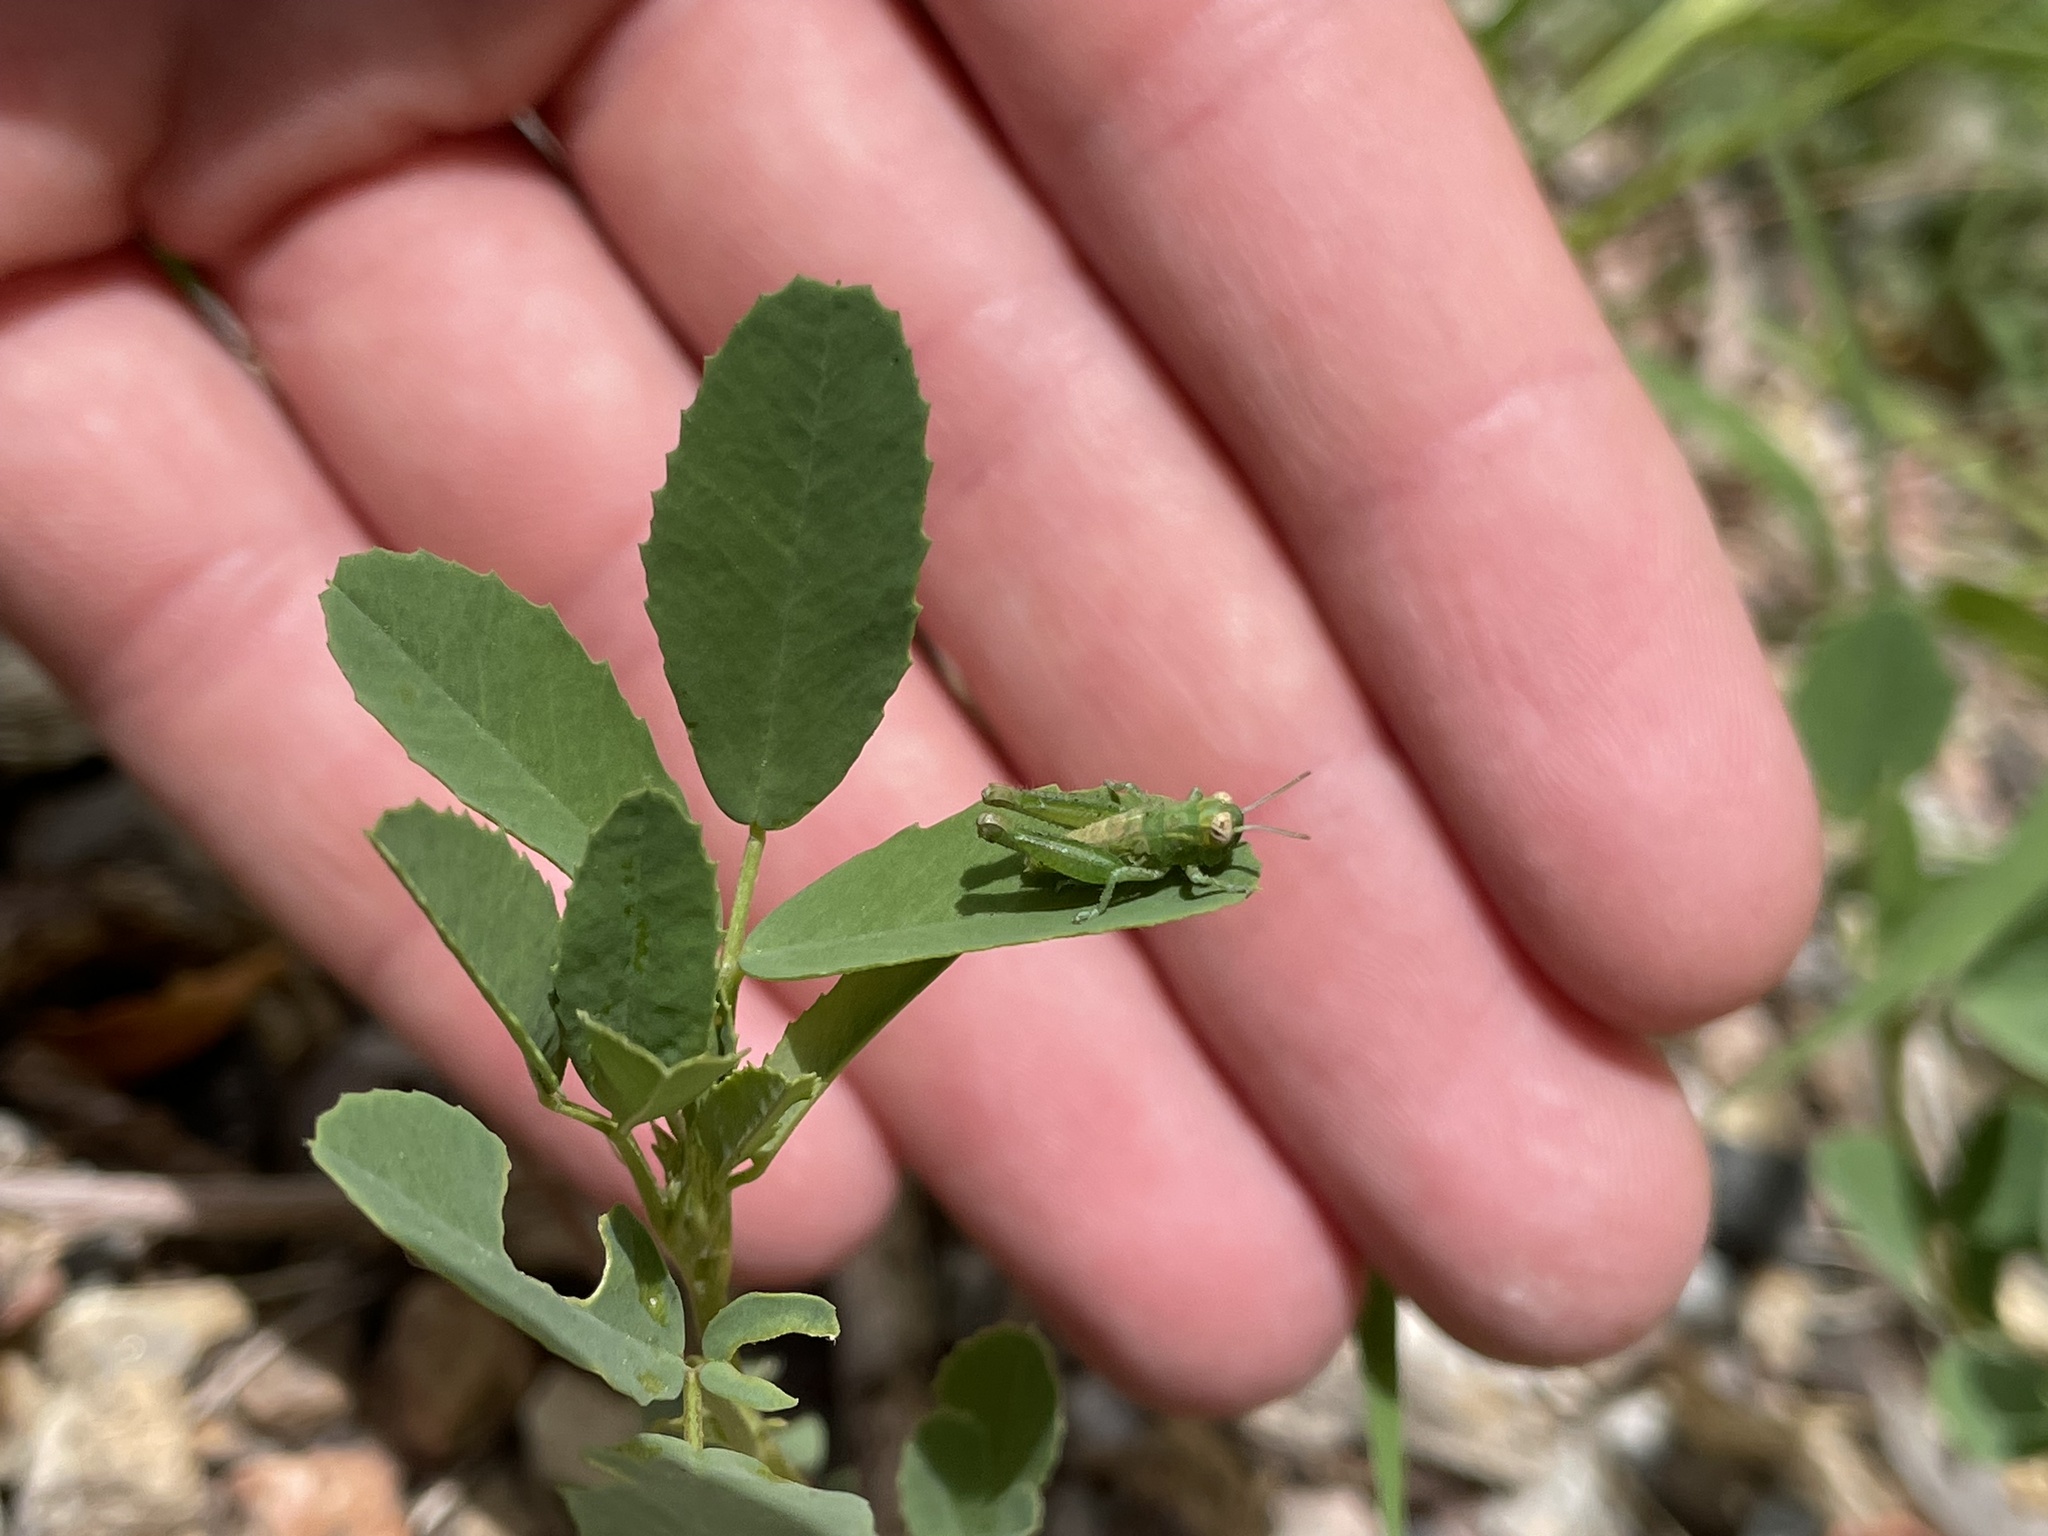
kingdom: Animalia
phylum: Arthropoda
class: Insecta
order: Orthoptera
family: Acrididae
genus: Melanoplus
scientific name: Melanoplus lakinus
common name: Lakin grasshopper
